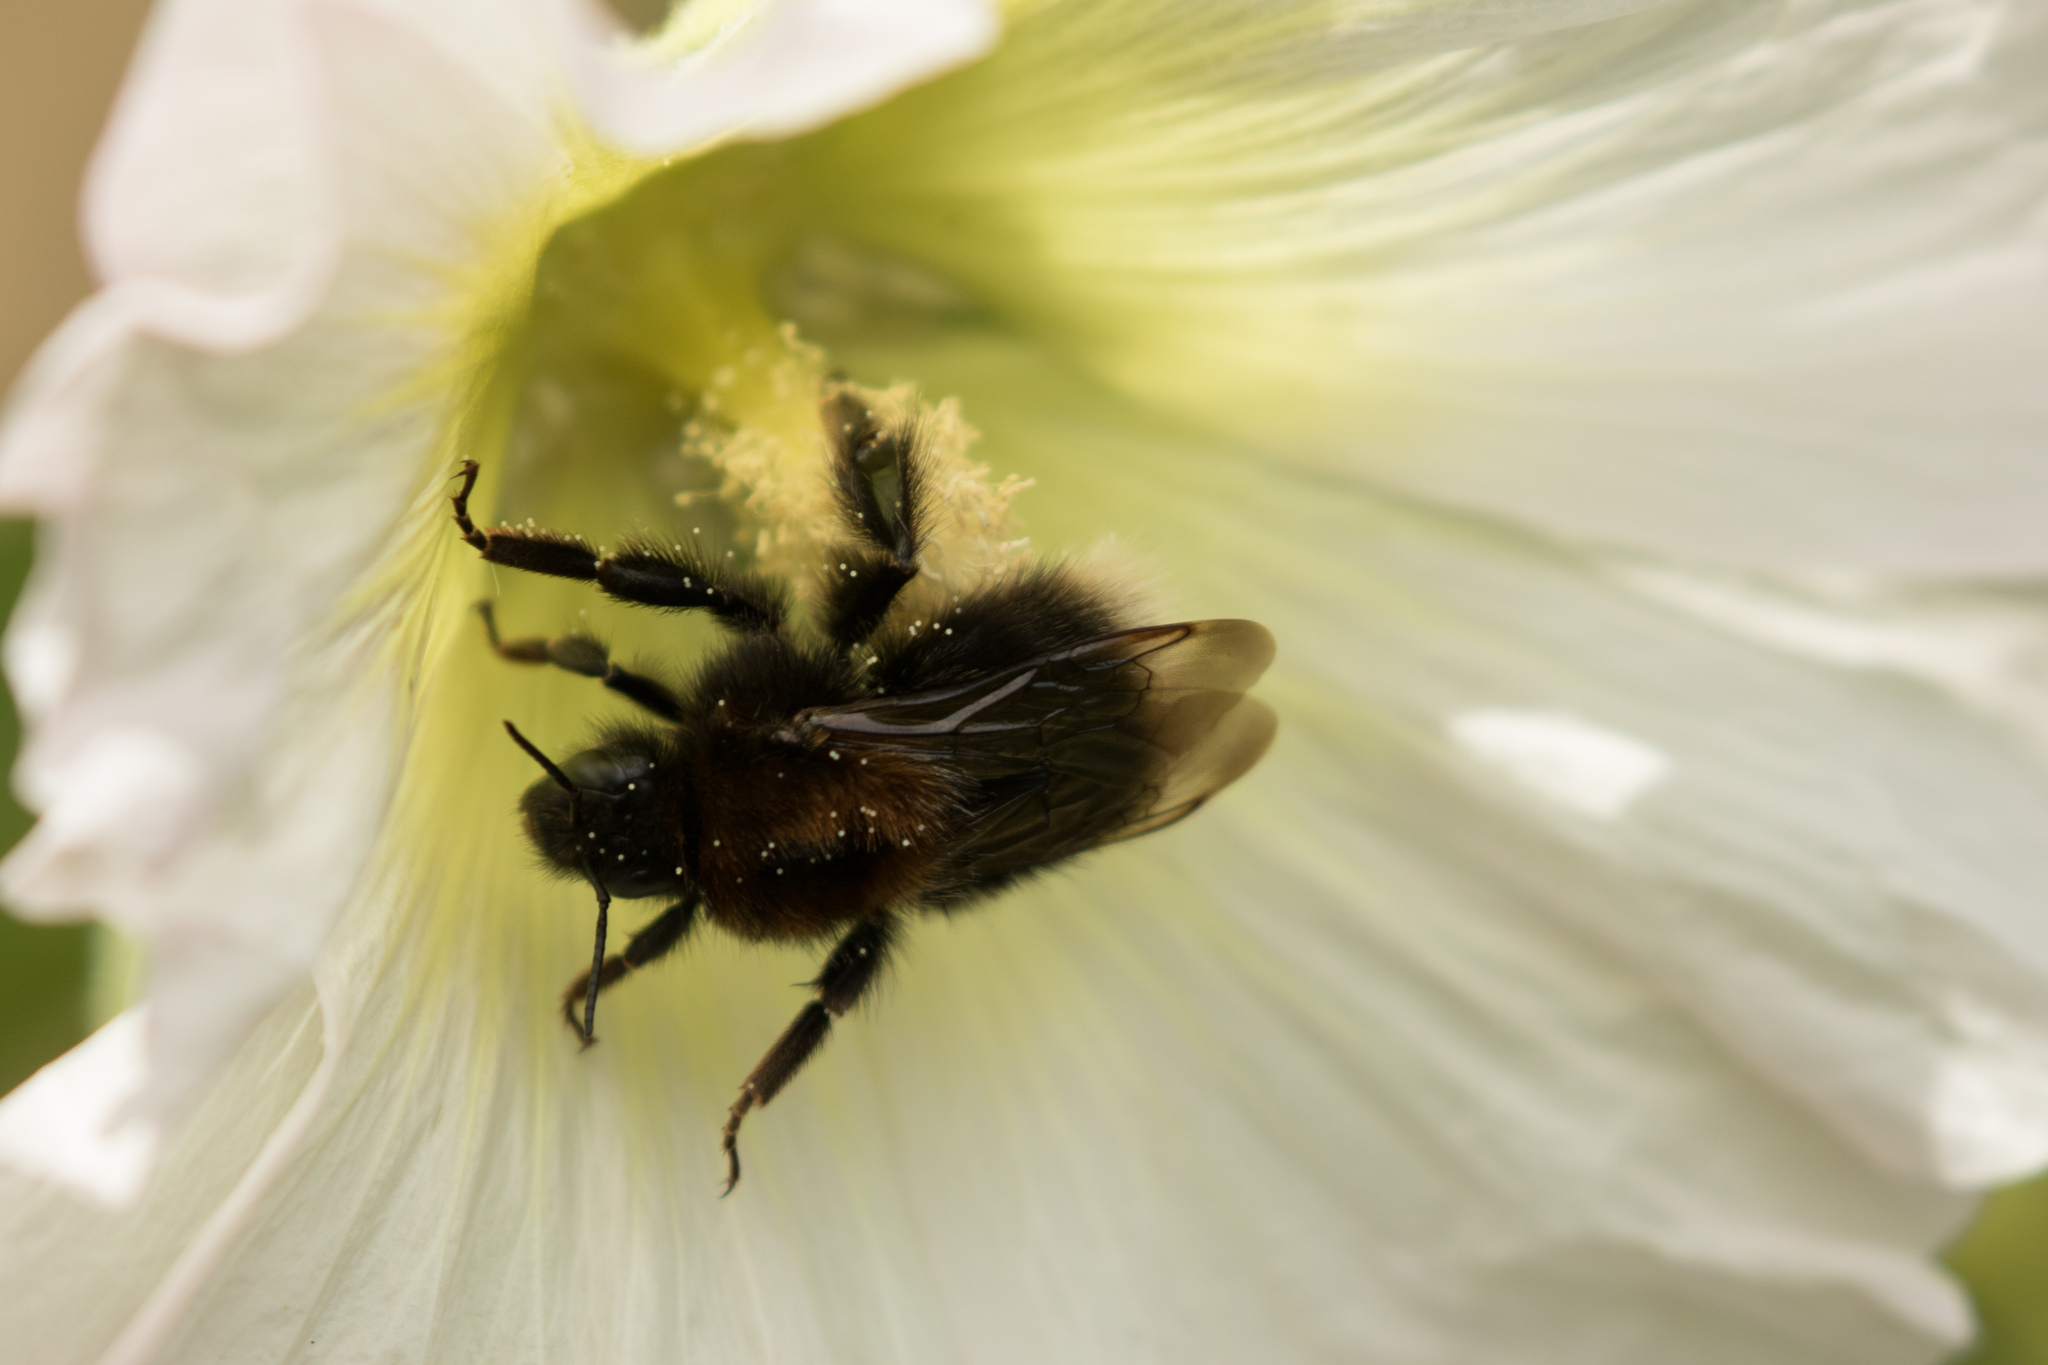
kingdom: Animalia
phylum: Arthropoda
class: Insecta
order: Hymenoptera
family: Apidae
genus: Bombus
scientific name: Bombus hypnorum
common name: New garden bumblebee
